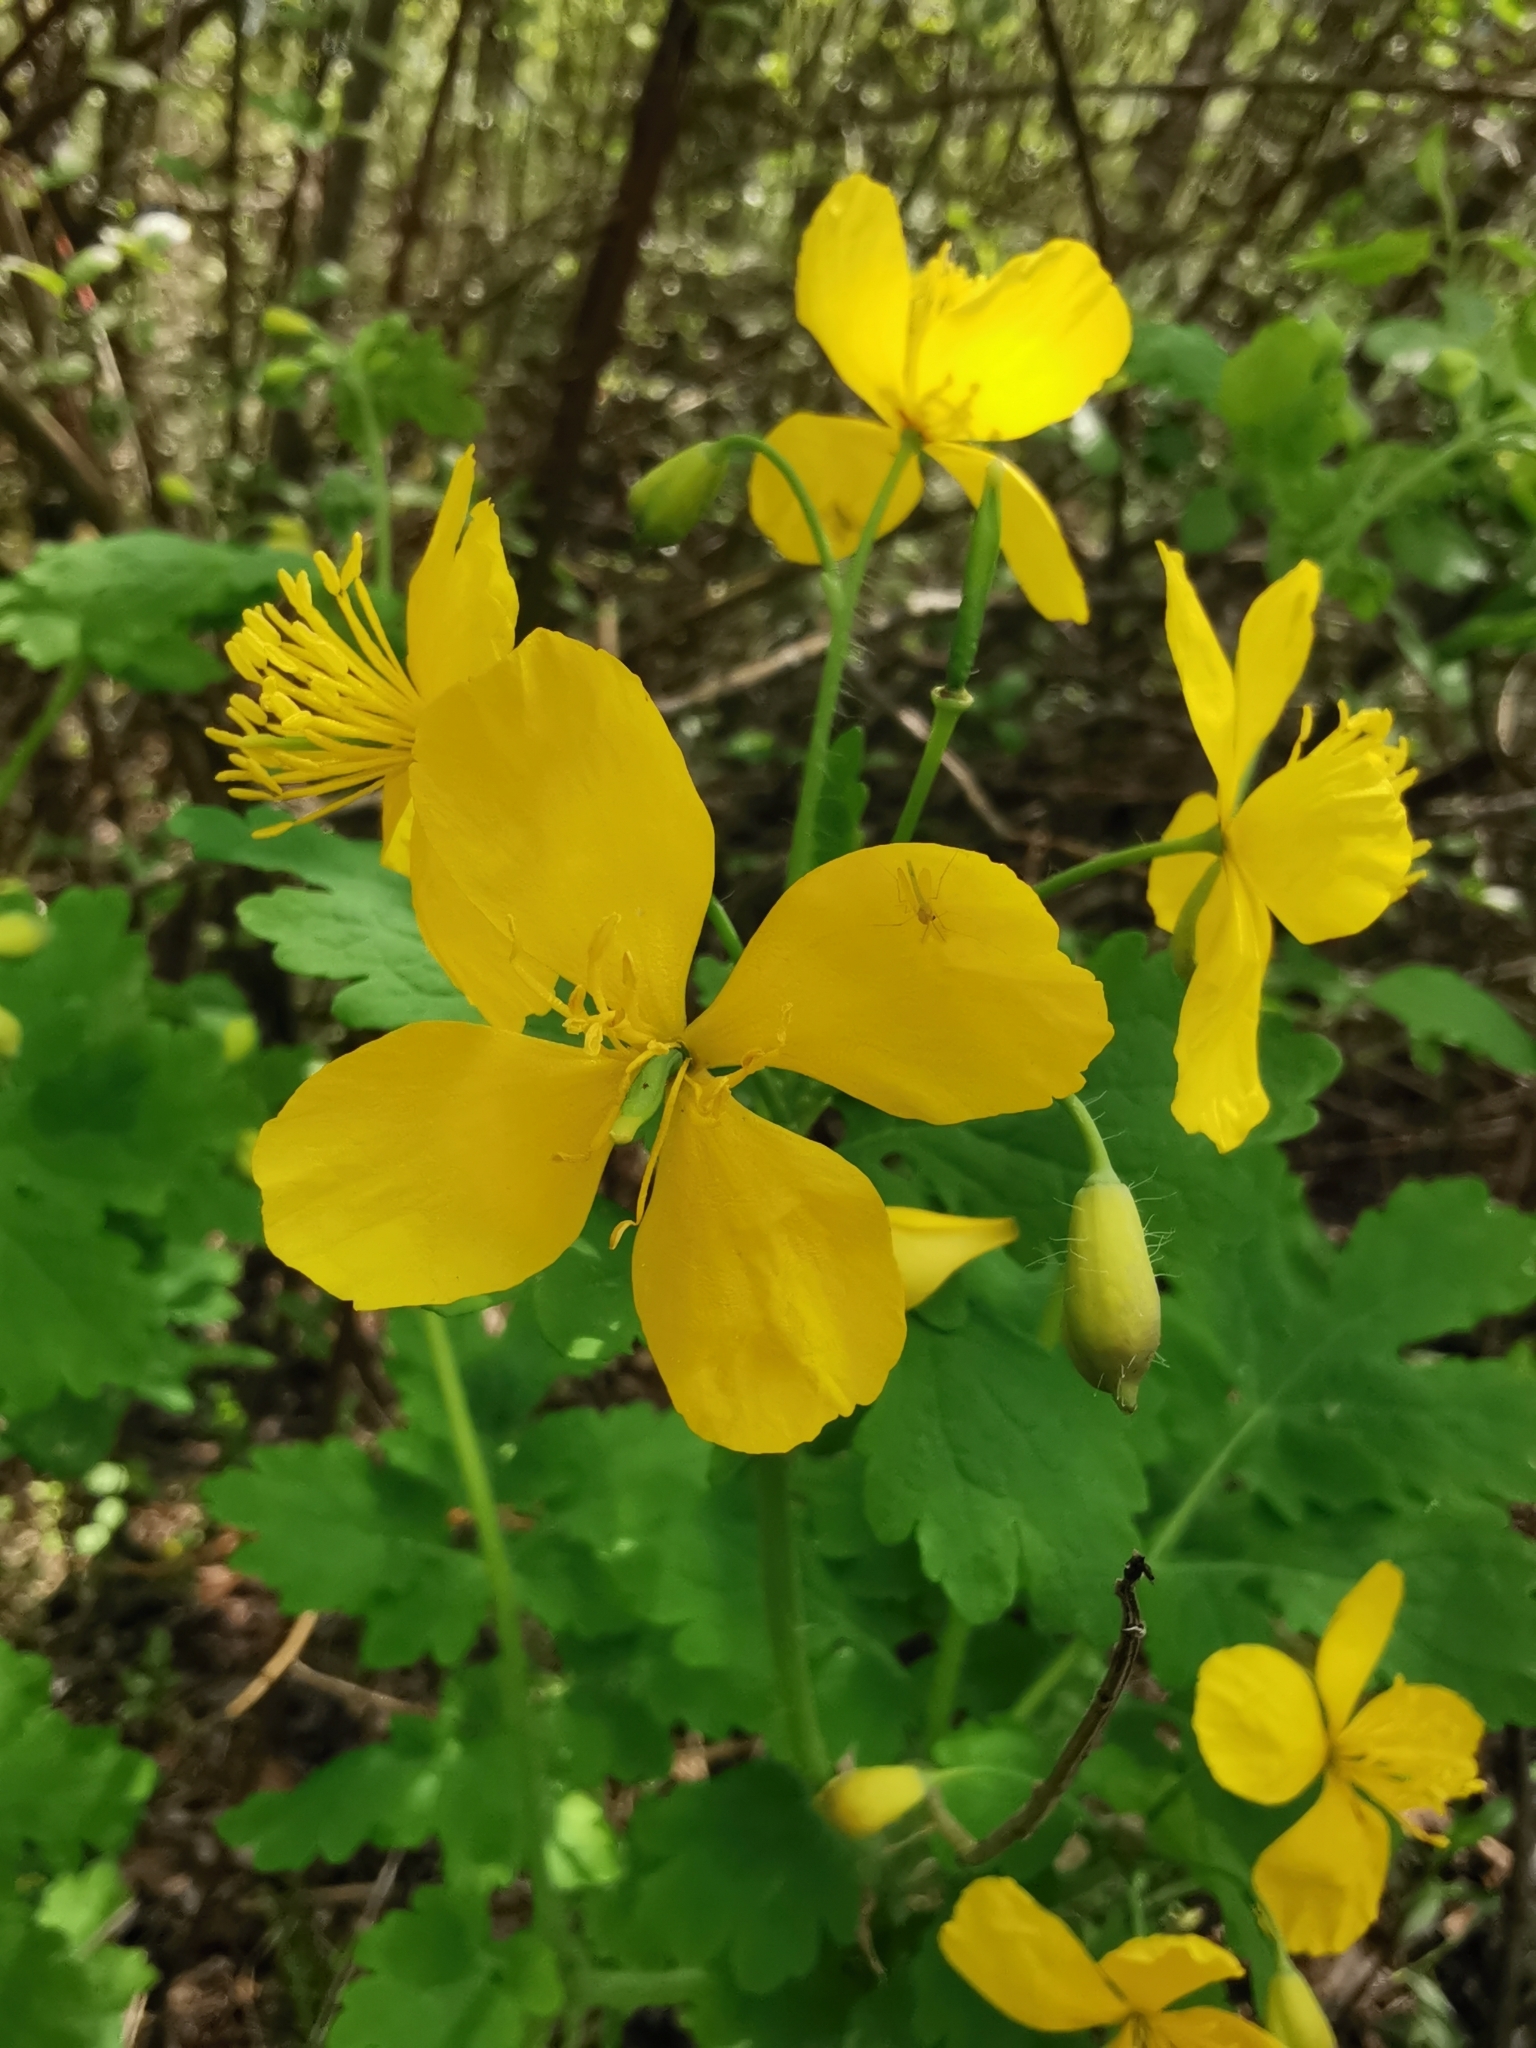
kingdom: Plantae
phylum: Tracheophyta
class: Magnoliopsida
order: Ranunculales
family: Papaveraceae
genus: Chelidonium
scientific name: Chelidonium majus
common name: Greater celandine
